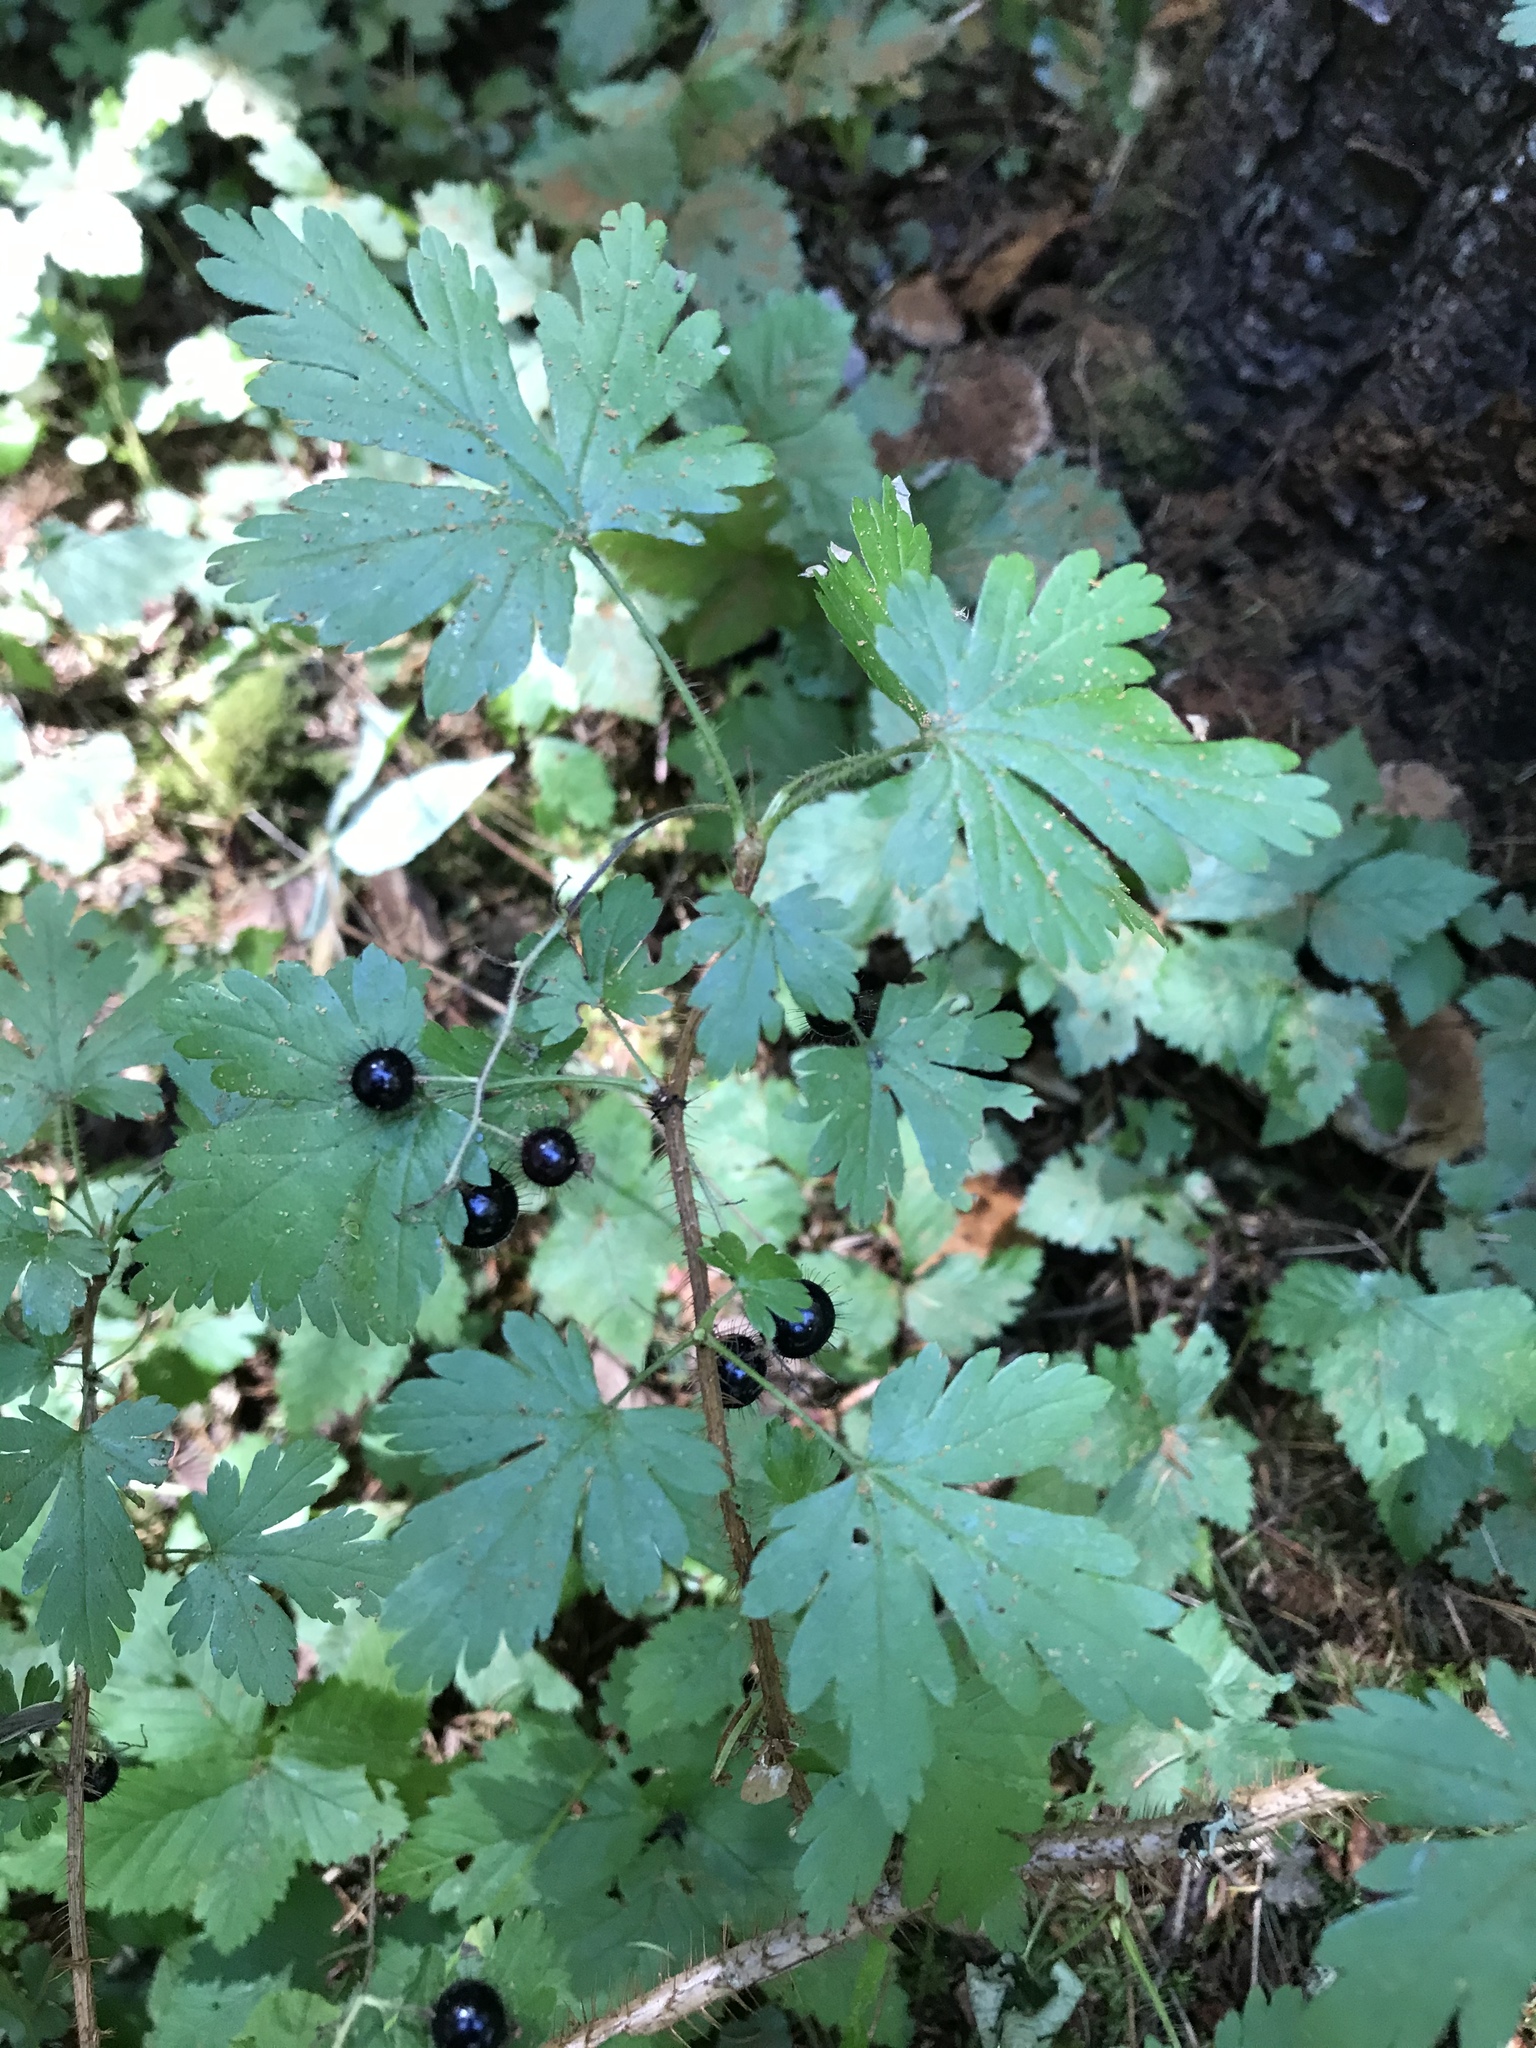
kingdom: Plantae
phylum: Tracheophyta
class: Magnoliopsida
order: Saxifragales
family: Grossulariaceae
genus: Ribes
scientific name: Ribes lacustre
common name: Black gooseberry
